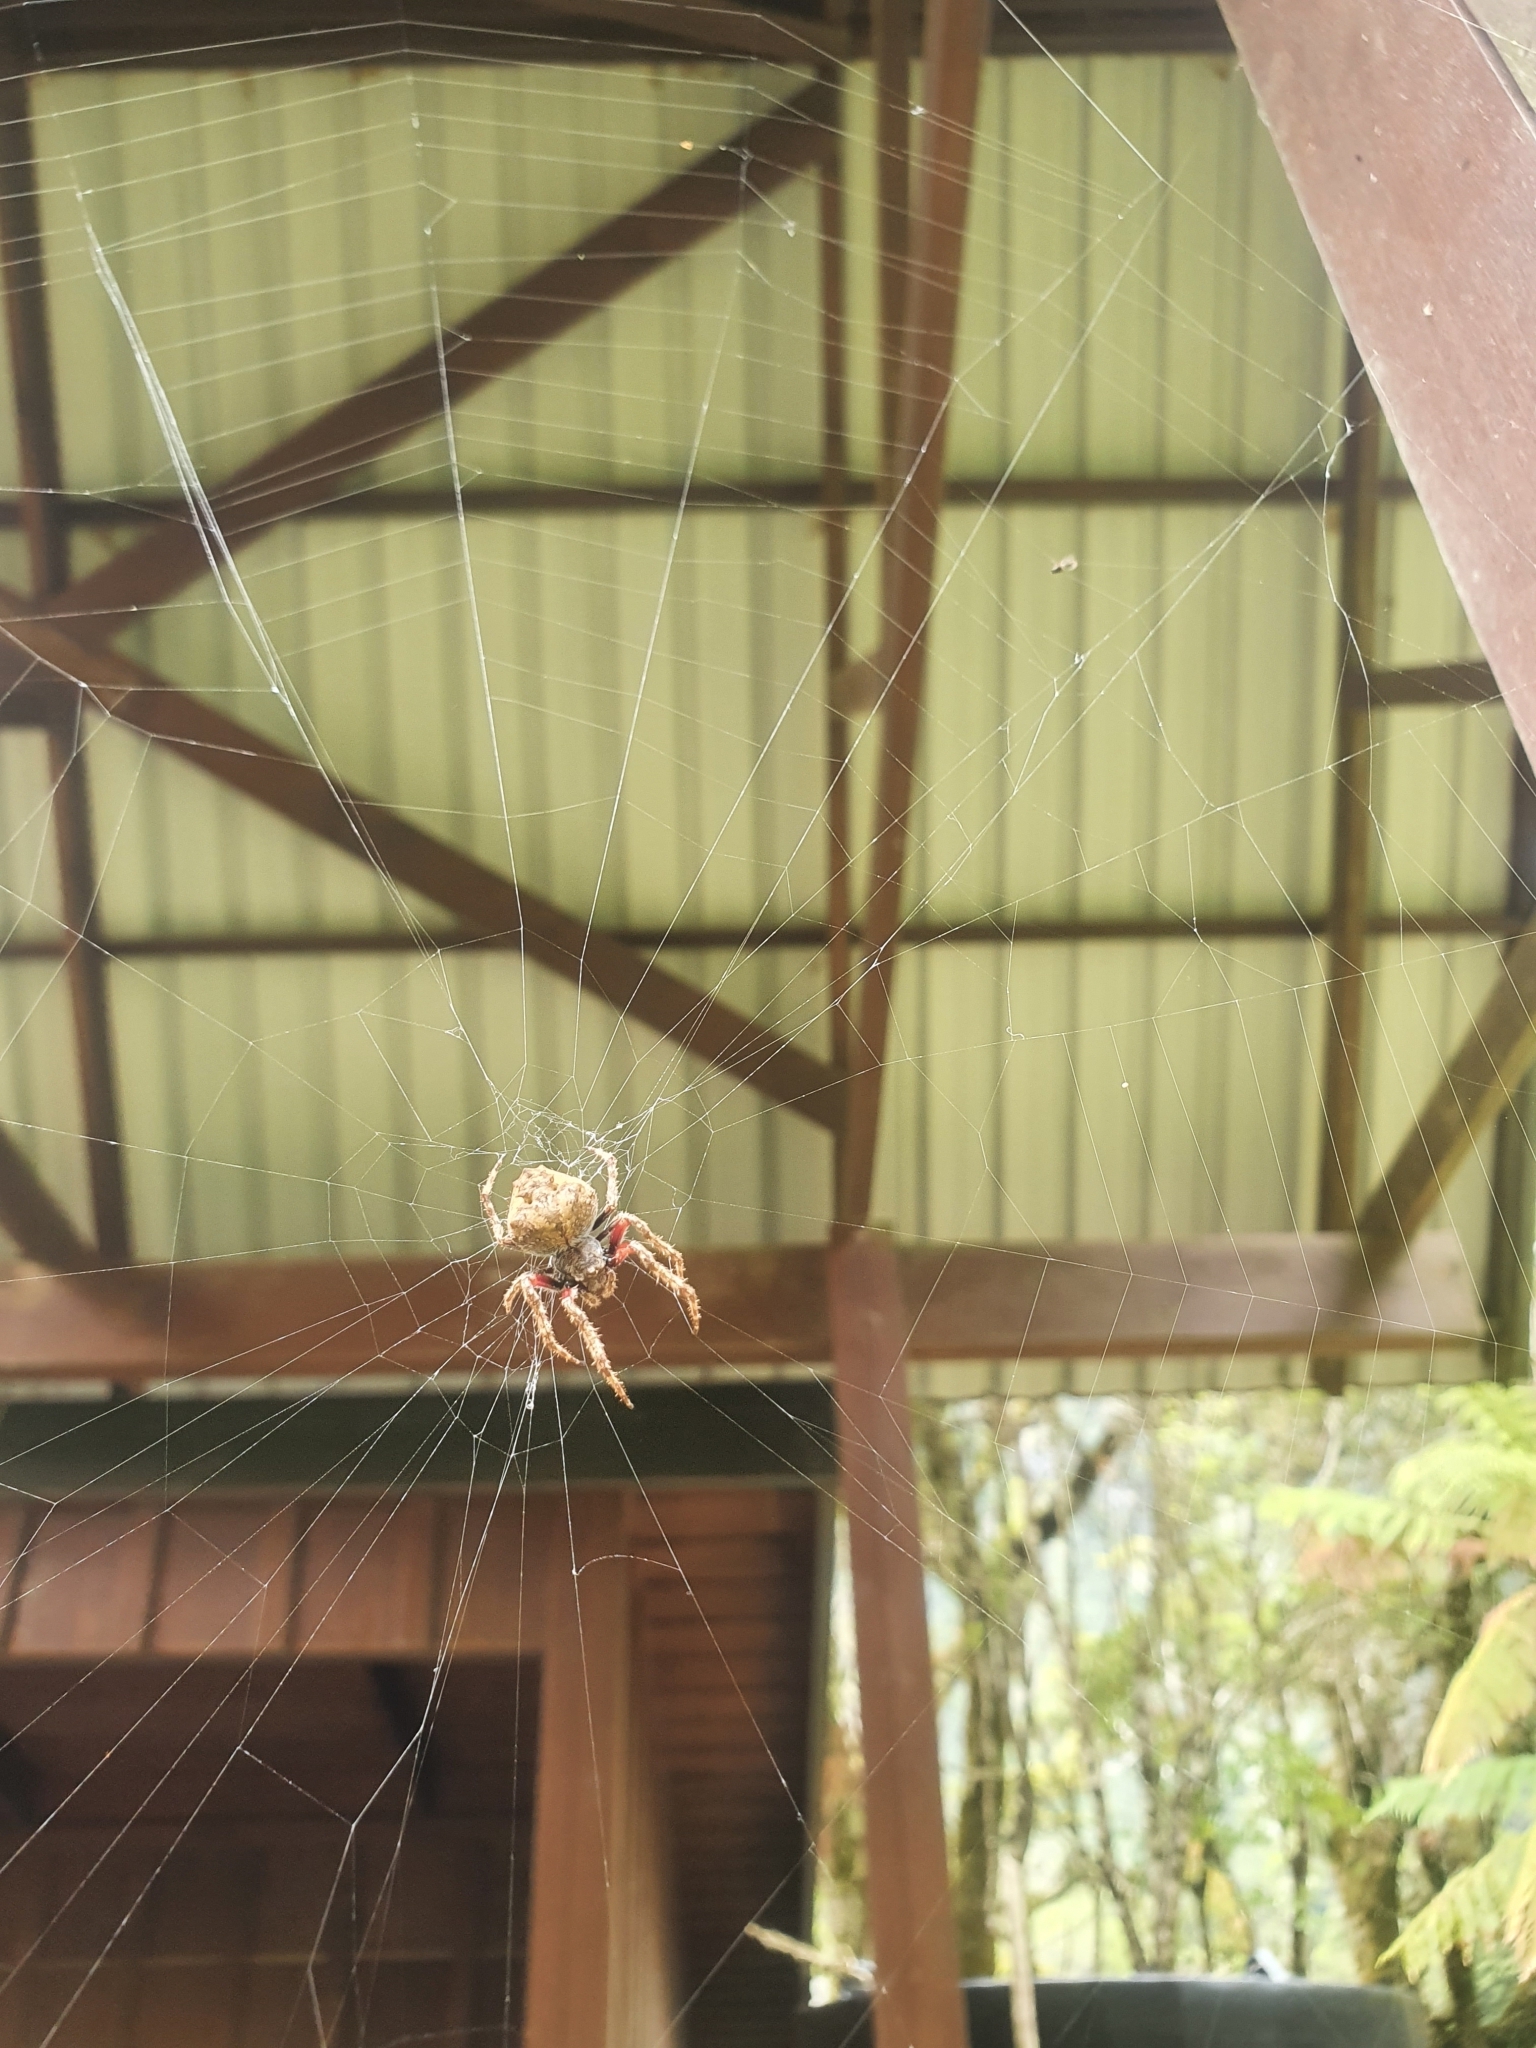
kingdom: Animalia
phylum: Arthropoda
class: Arachnida
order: Araneae
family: Araneidae
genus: Eriophora
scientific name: Eriophora pustulosa
